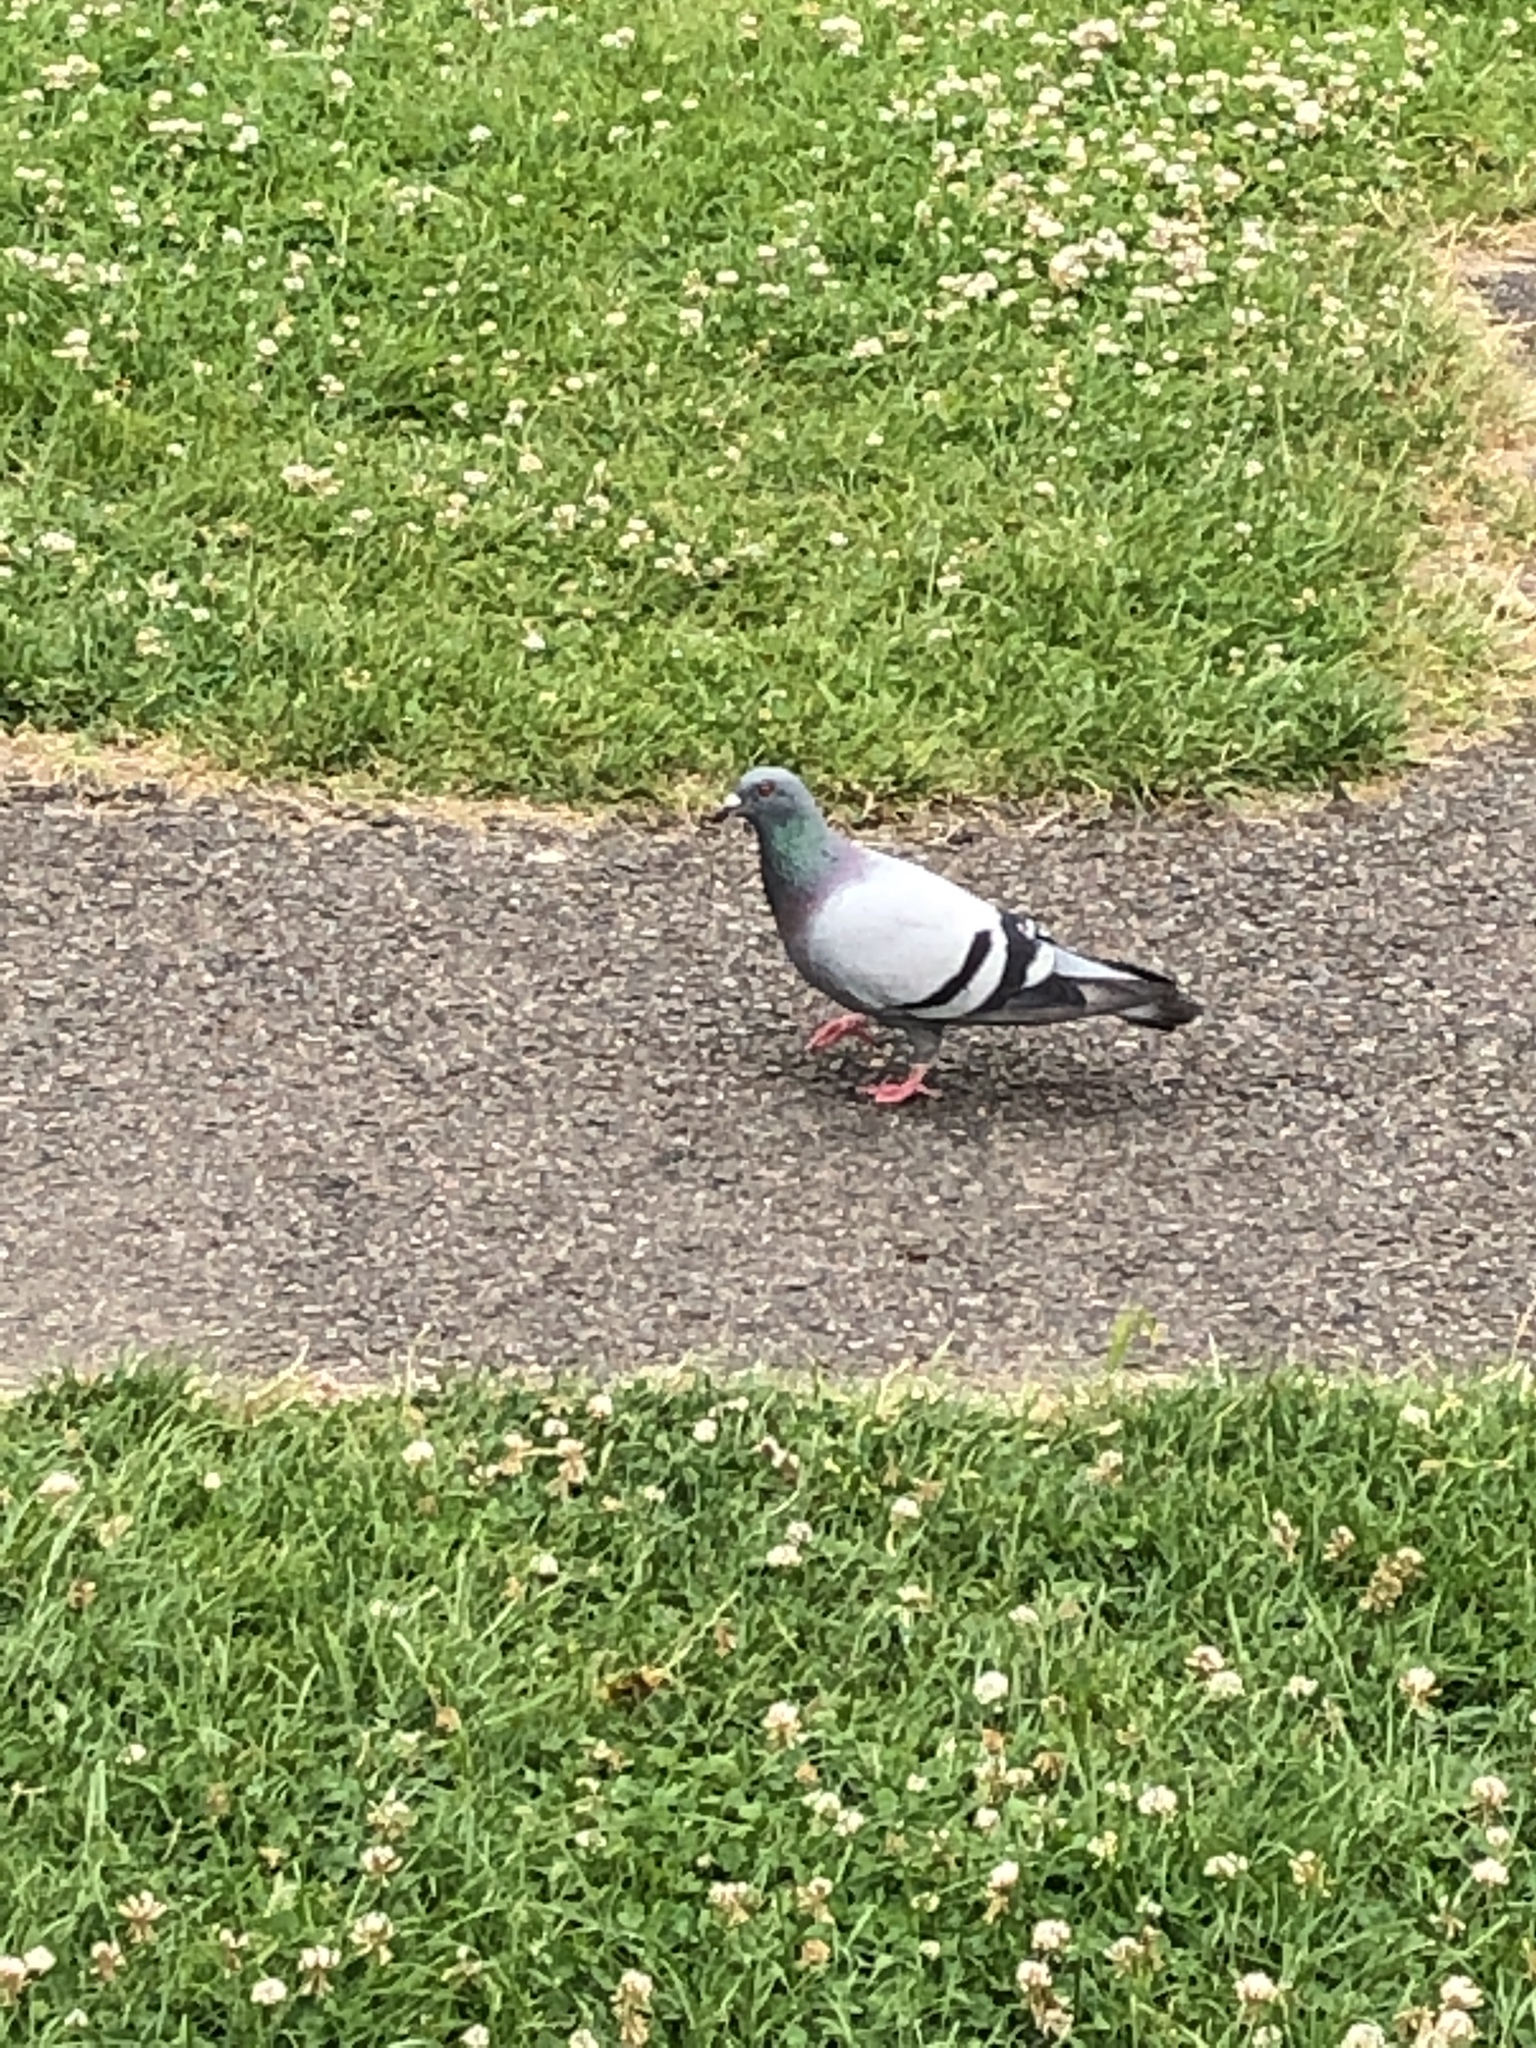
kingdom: Animalia
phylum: Chordata
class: Aves
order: Columbiformes
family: Columbidae
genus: Columba
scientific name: Columba livia
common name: Rock pigeon
